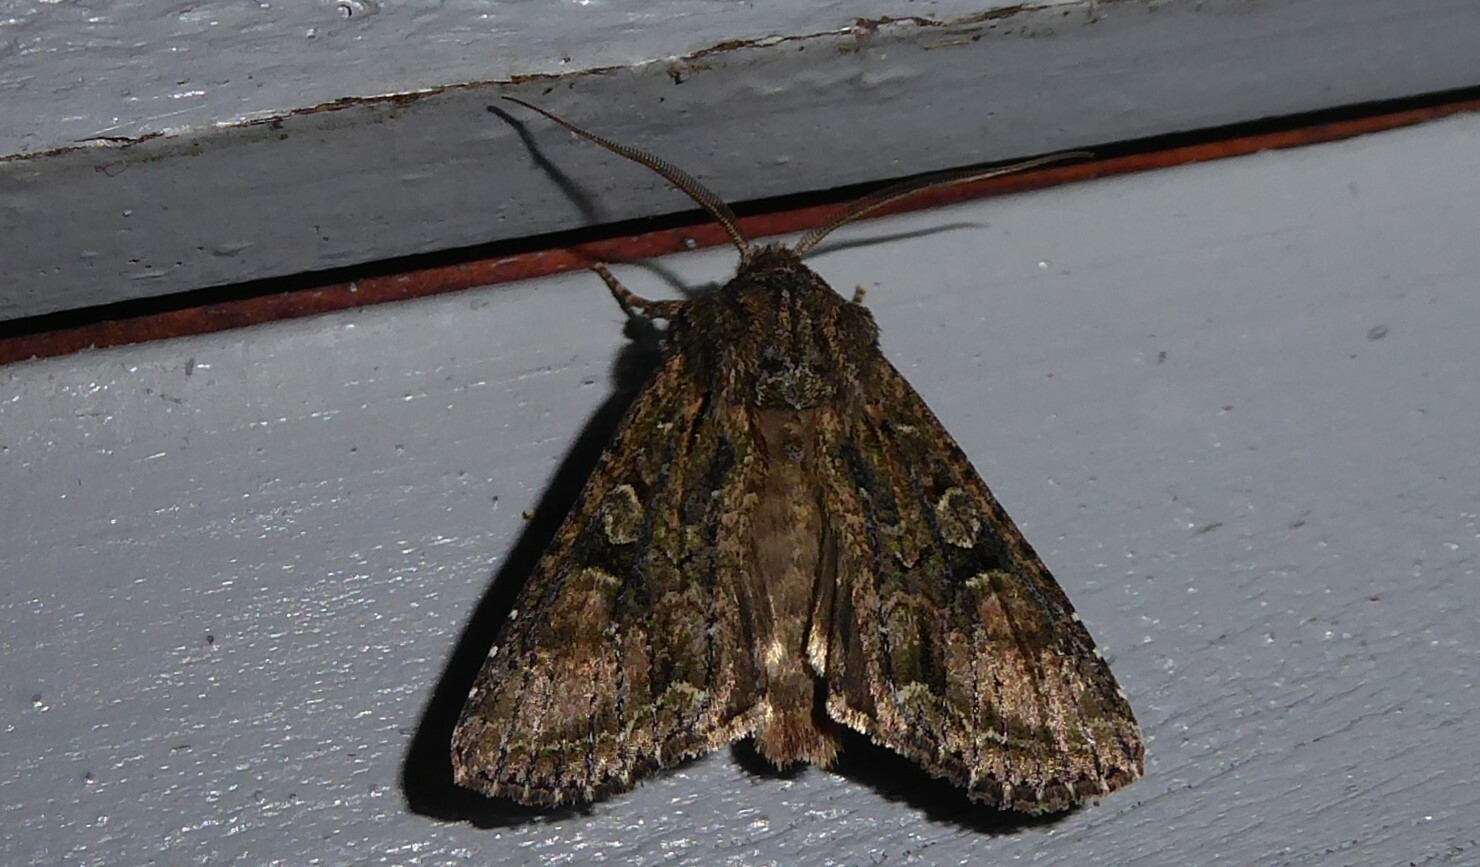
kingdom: Animalia
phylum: Arthropoda
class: Insecta
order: Lepidoptera
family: Noctuidae
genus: Ichneutica
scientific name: Ichneutica mutans
